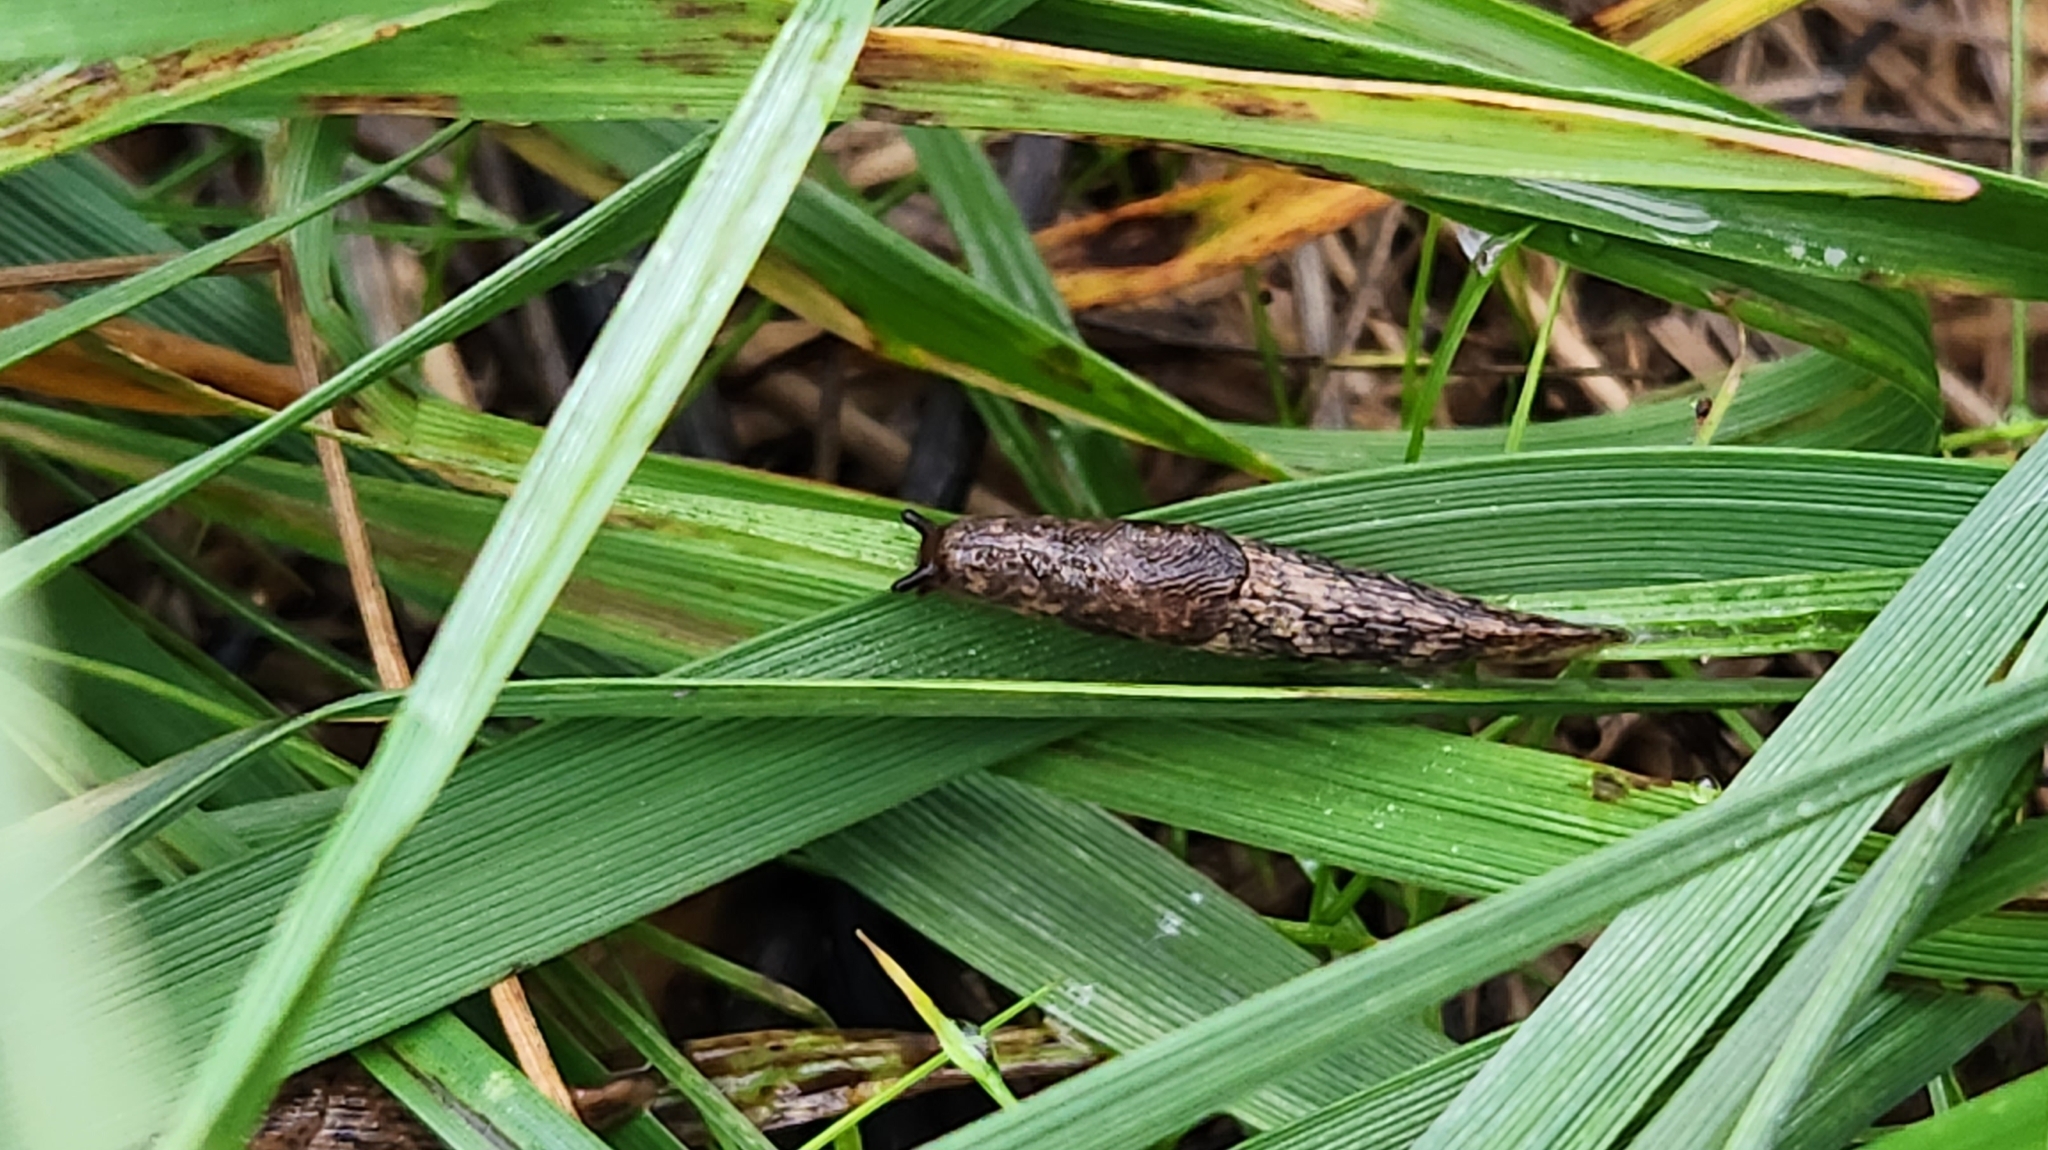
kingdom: Animalia
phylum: Mollusca
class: Gastropoda
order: Stylommatophora
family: Agriolimacidae
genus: Deroceras
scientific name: Deroceras reticulatum
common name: Gray field slug
